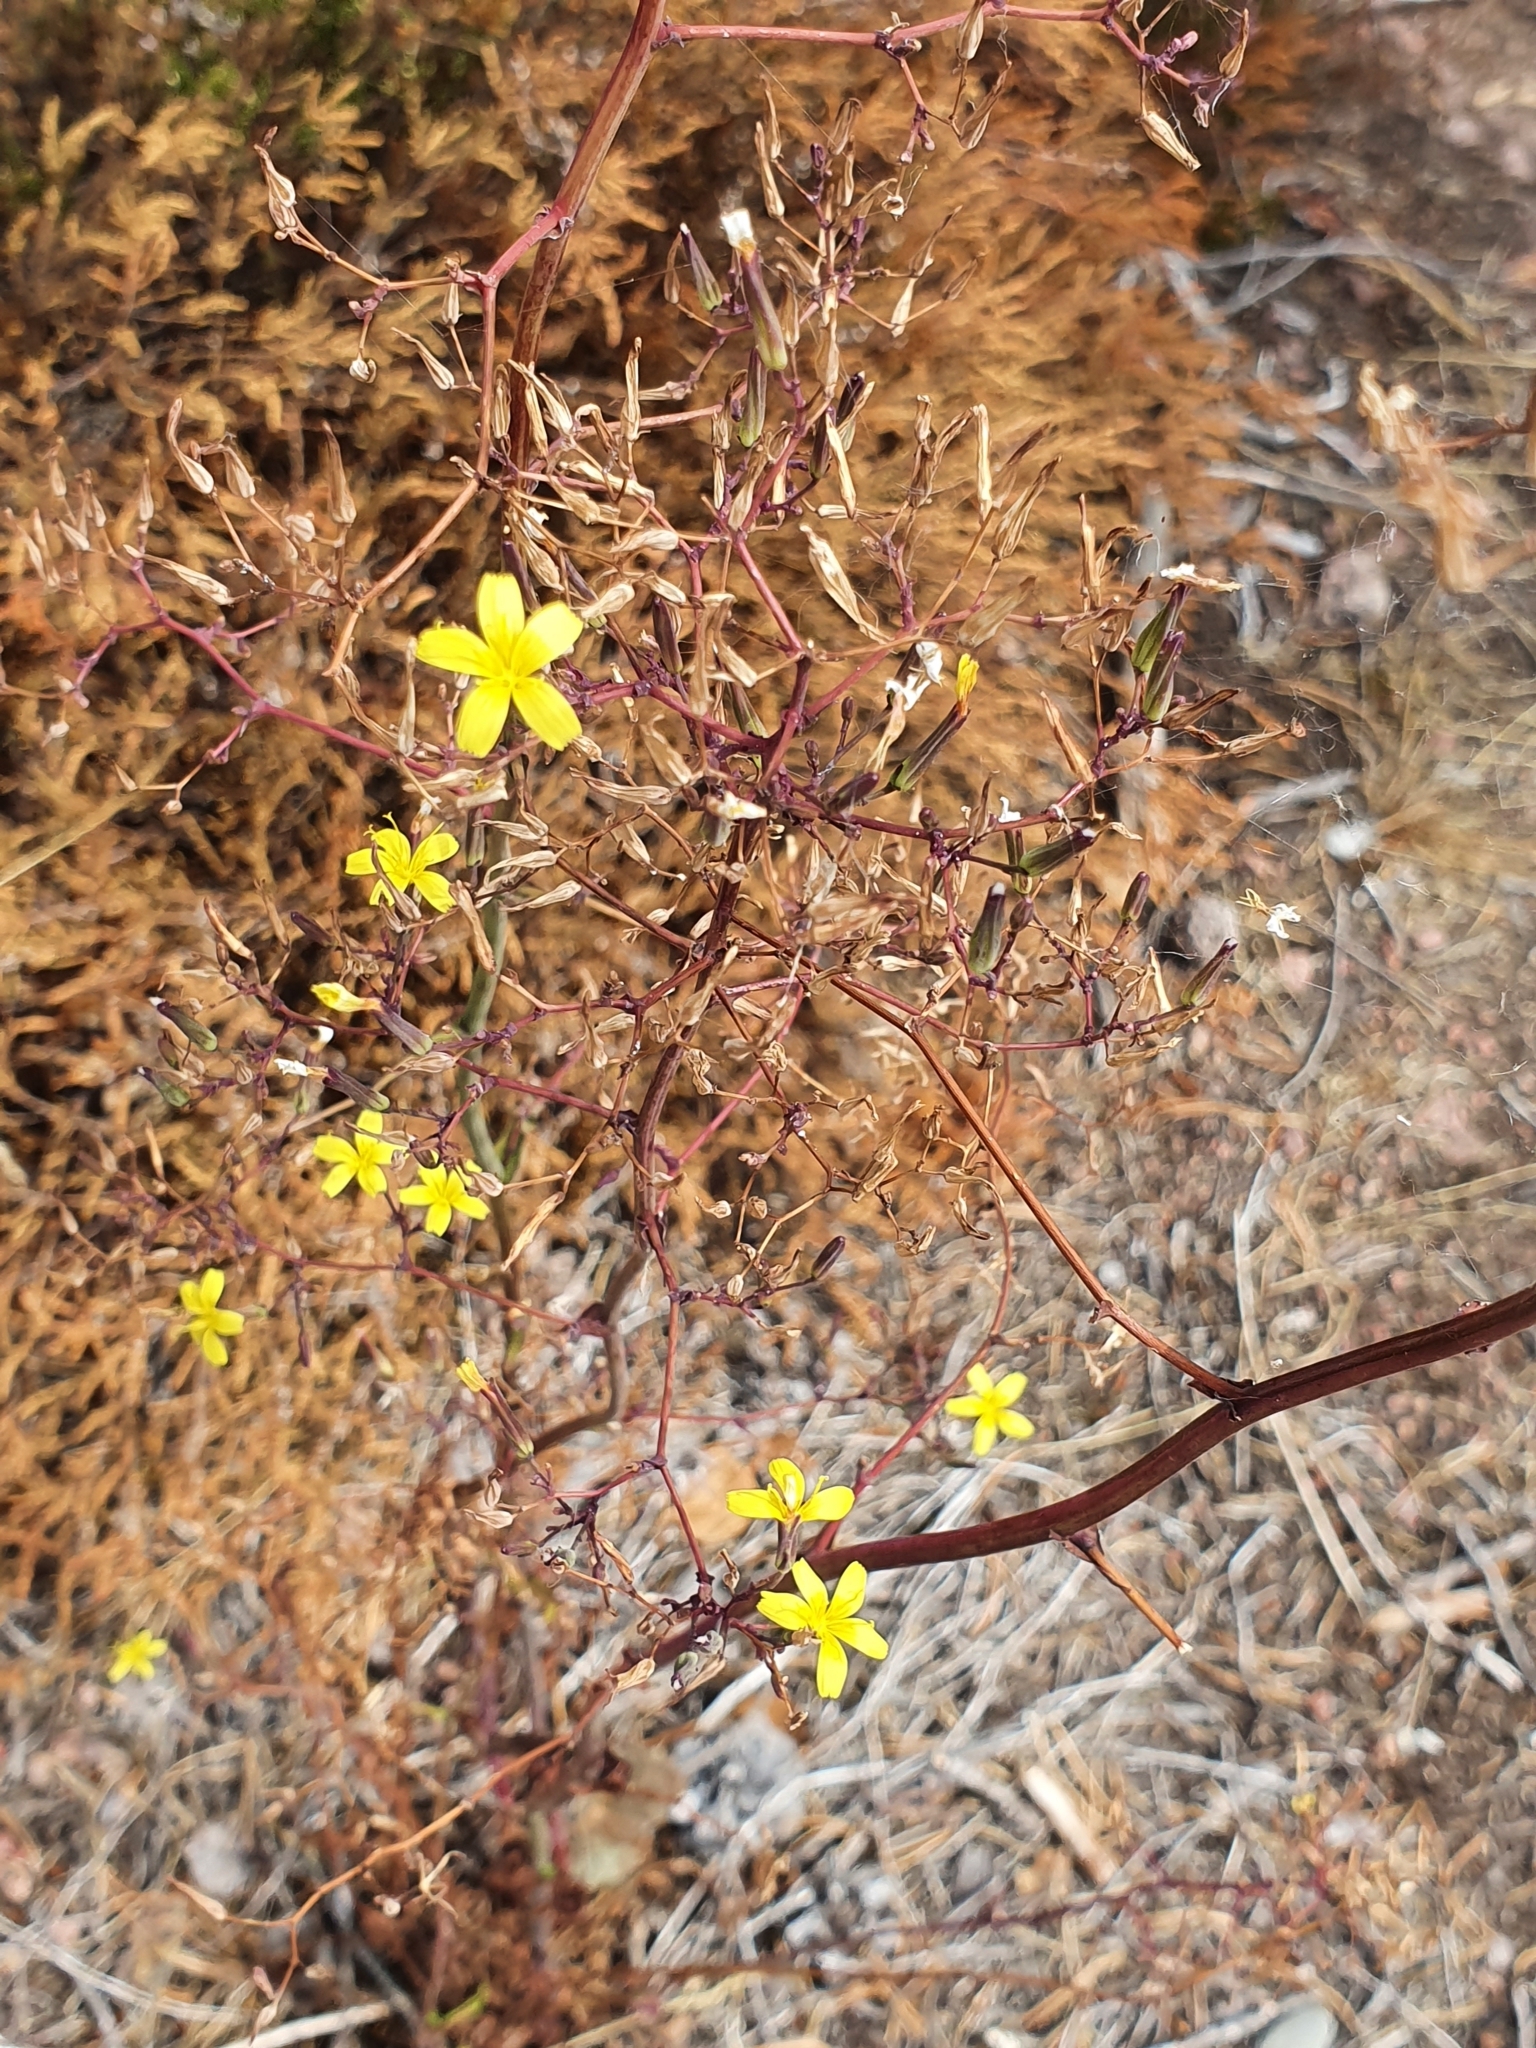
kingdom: Plantae
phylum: Tracheophyta
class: Magnoliopsida
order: Asterales
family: Asteraceae
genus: Mycelis
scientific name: Mycelis muralis
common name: Wall lettuce
